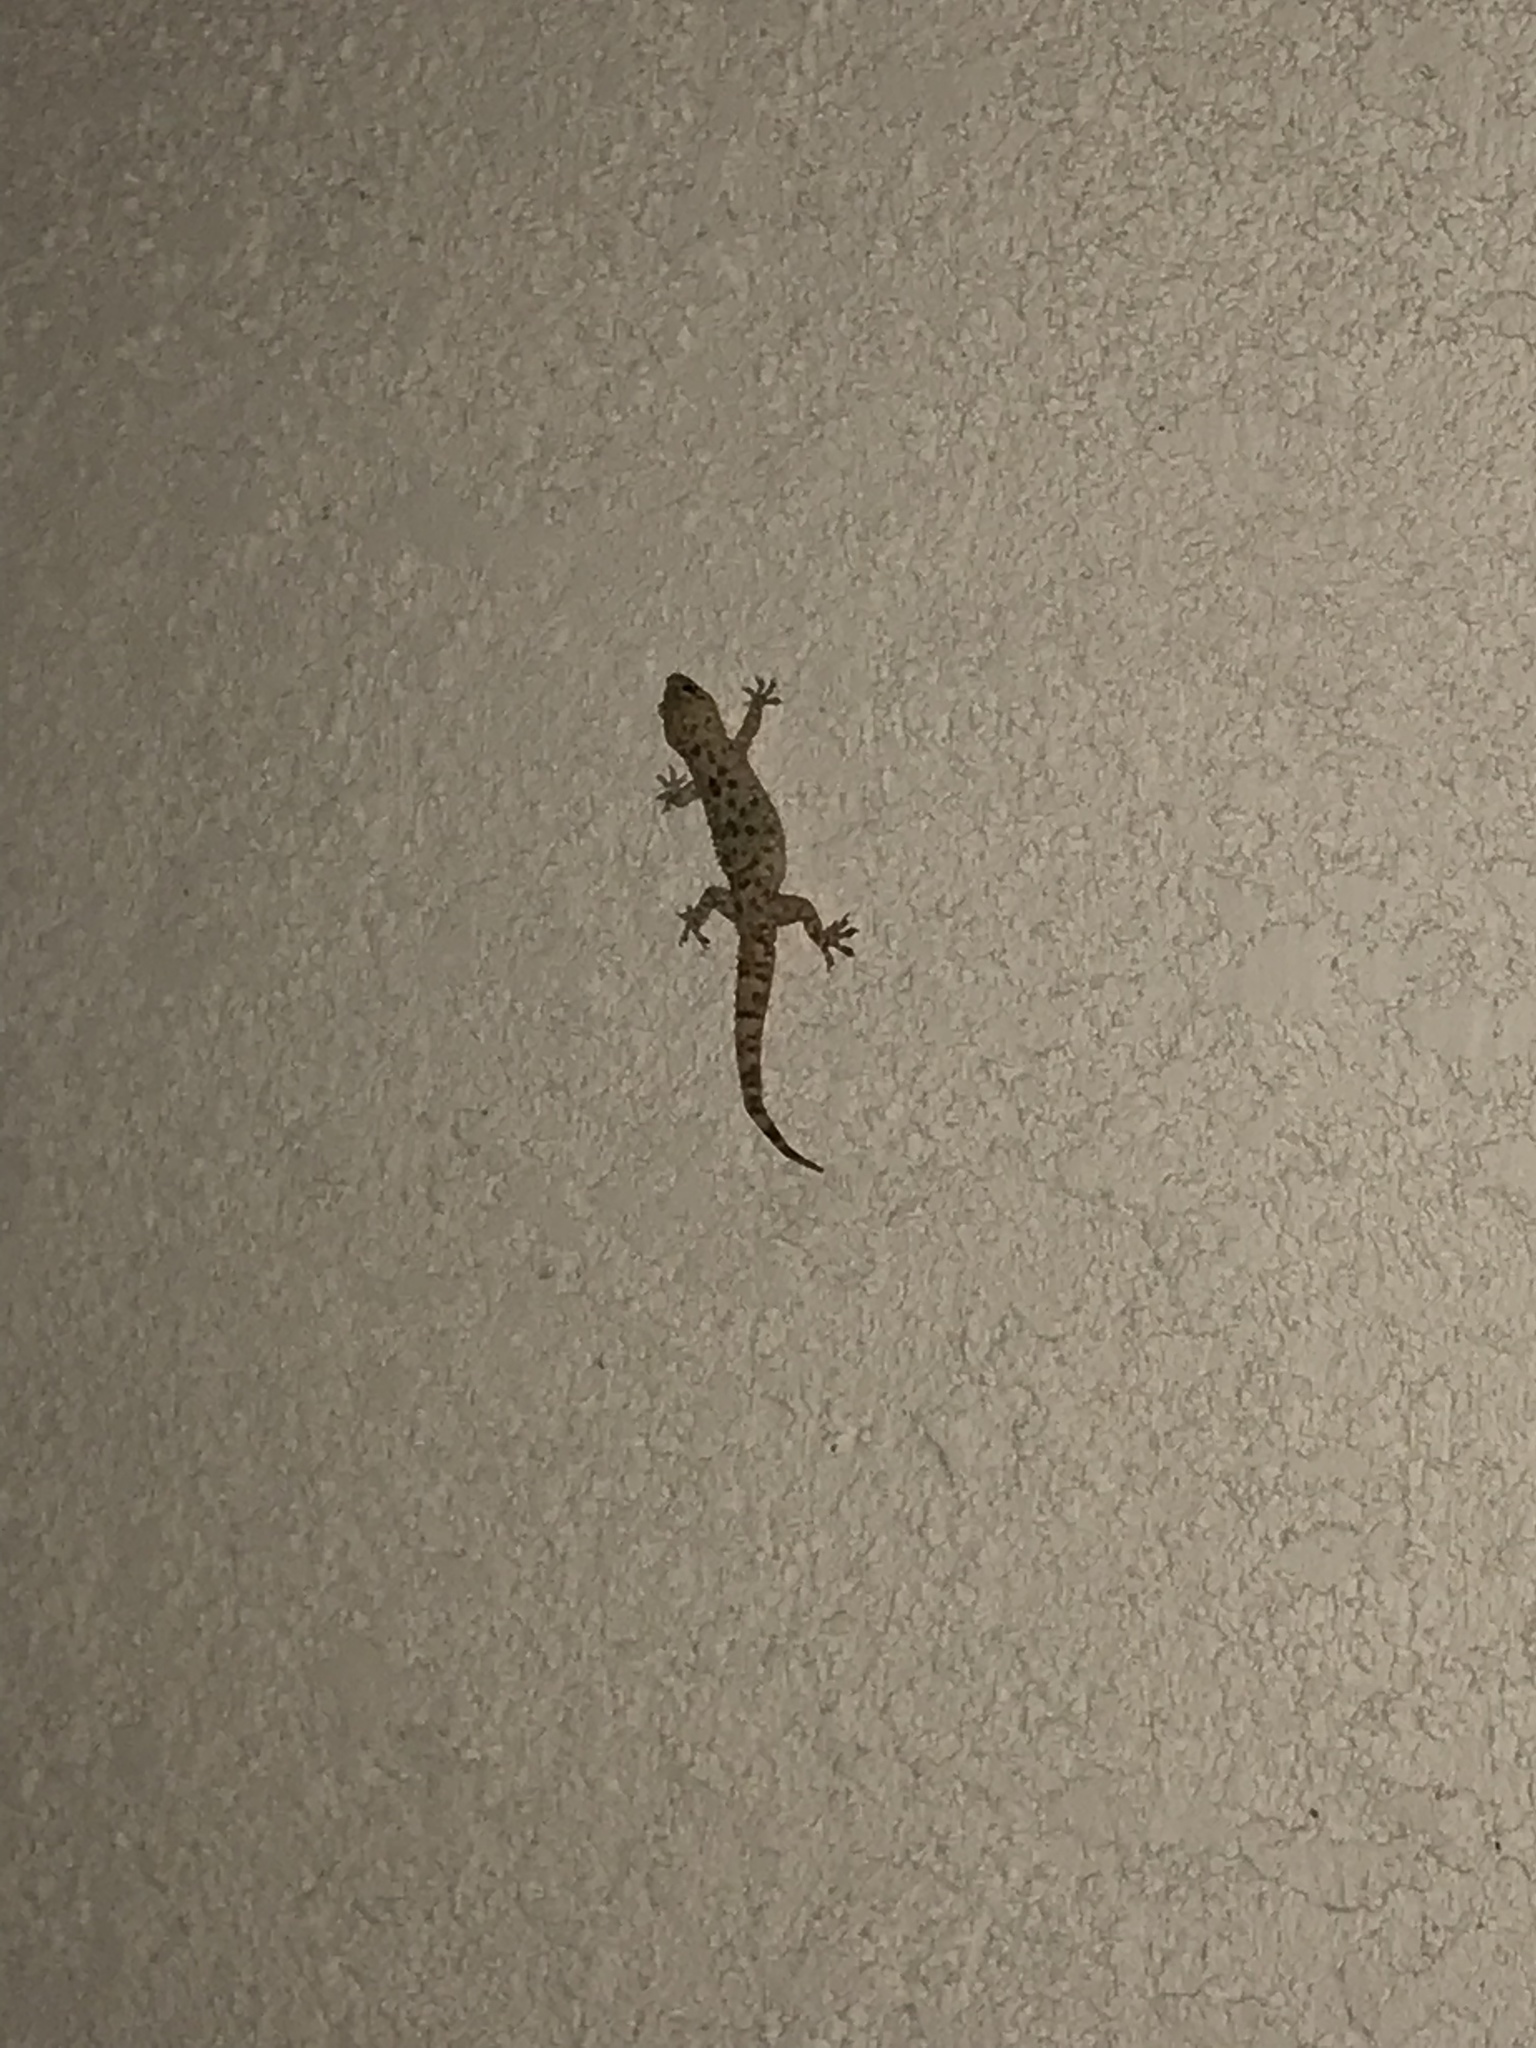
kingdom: Animalia
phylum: Chordata
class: Squamata
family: Gekkonidae
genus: Hemidactylus
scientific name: Hemidactylus turcicus
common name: Turkish gecko
